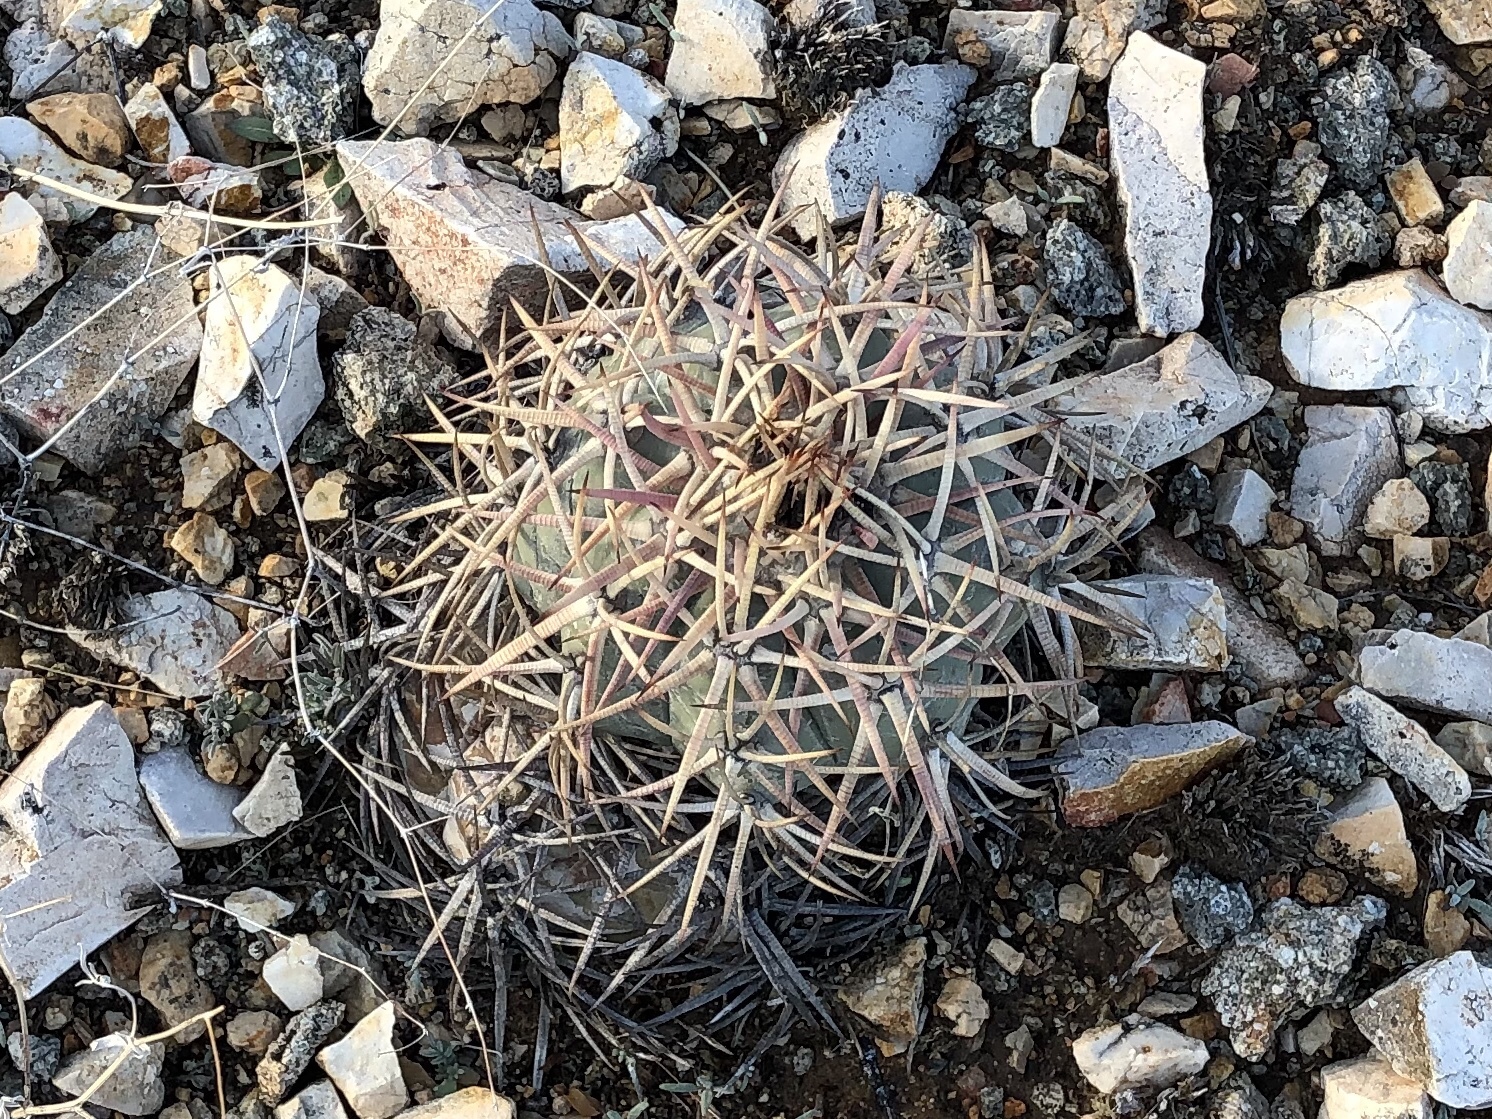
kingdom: Plantae
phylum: Tracheophyta
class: Magnoliopsida
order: Caryophyllales
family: Cactaceae
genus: Echinocactus
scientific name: Echinocactus horizonthalonius
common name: Devilshead
